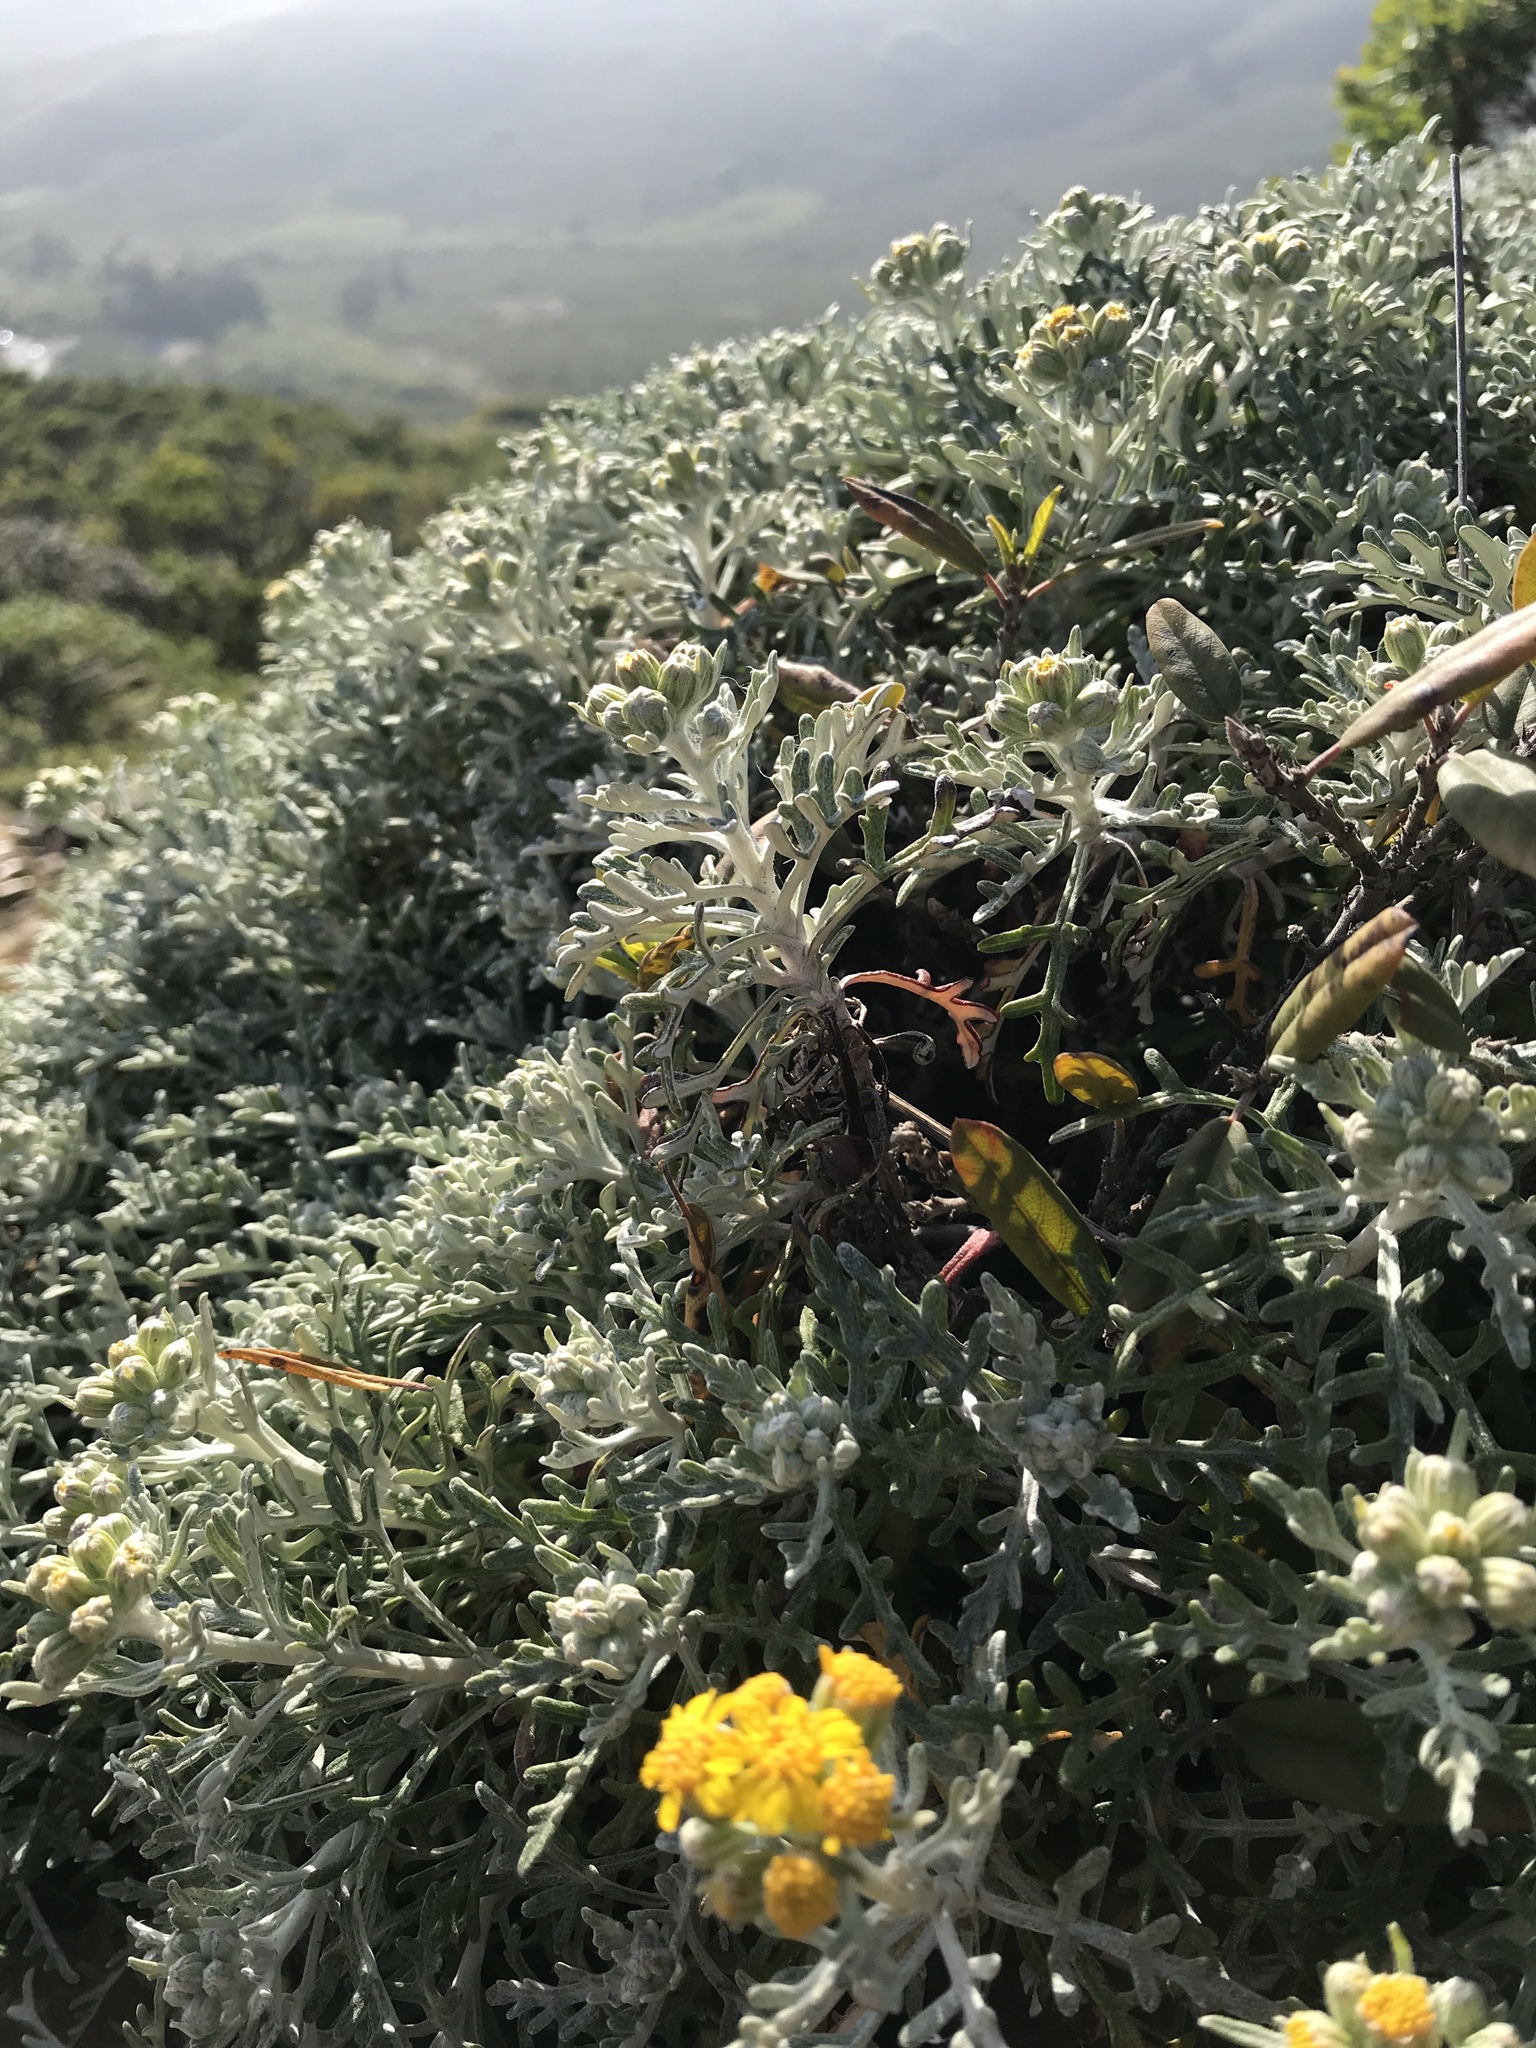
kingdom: Plantae
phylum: Tracheophyta
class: Magnoliopsida
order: Asterales
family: Asteraceae
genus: Eriophyllum
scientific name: Eriophyllum staechadifolium
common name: Lizardtail
